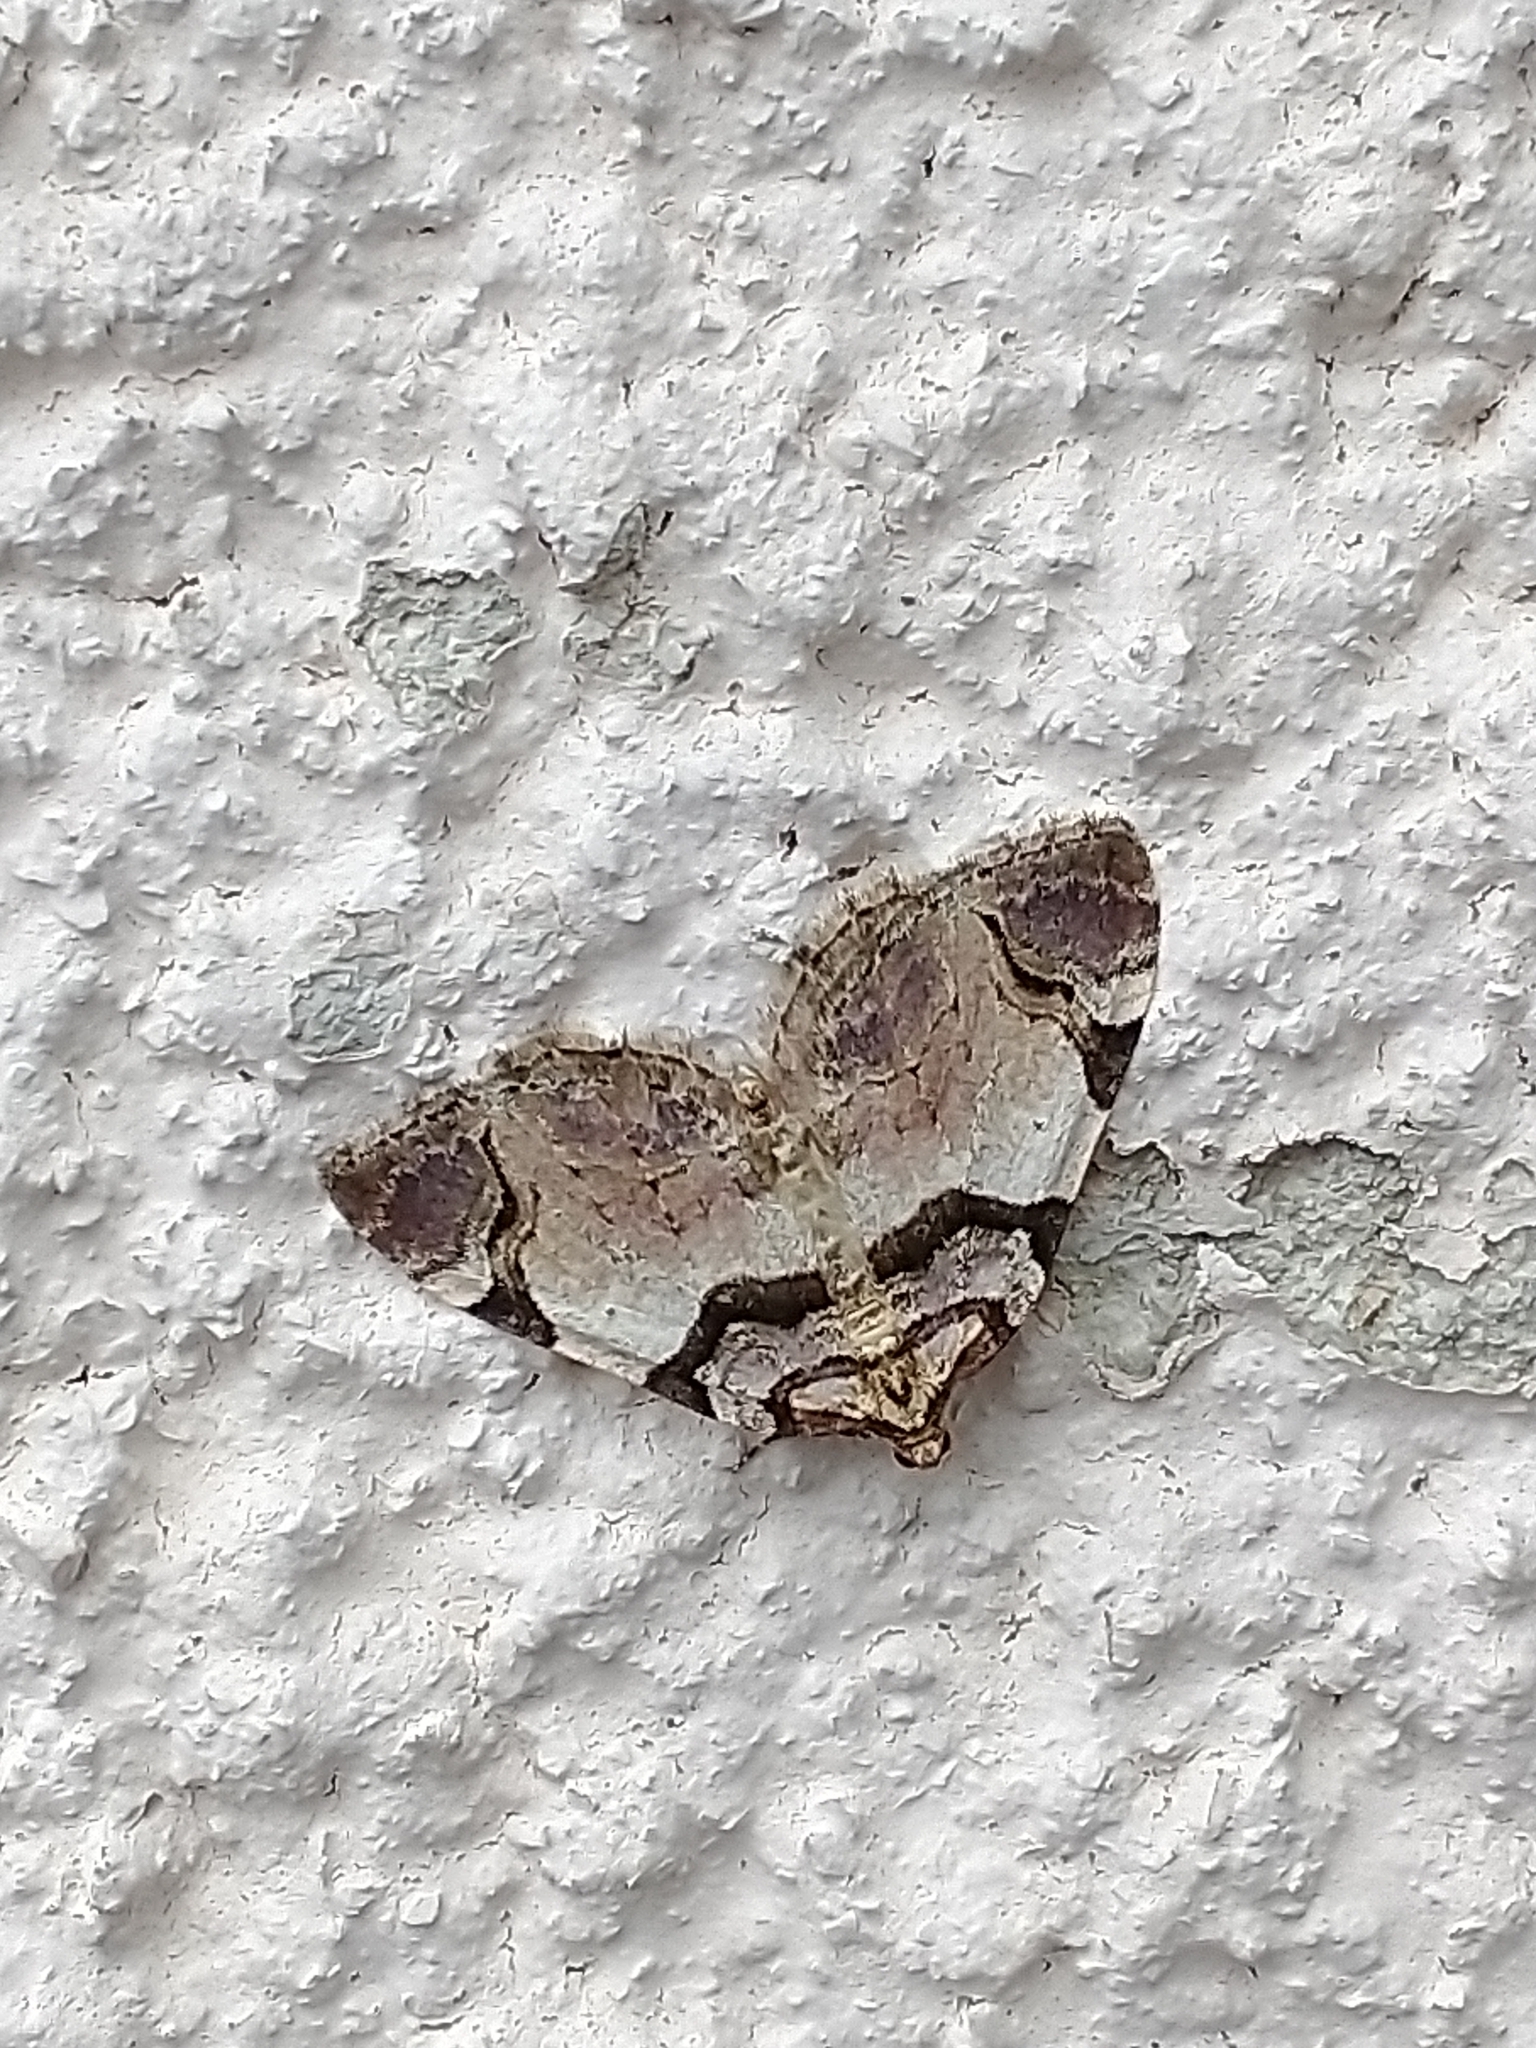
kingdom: Animalia
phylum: Arthropoda
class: Insecta
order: Lepidoptera
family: Geometridae
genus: Anticlea
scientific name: Anticlea derivata
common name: Streamer
